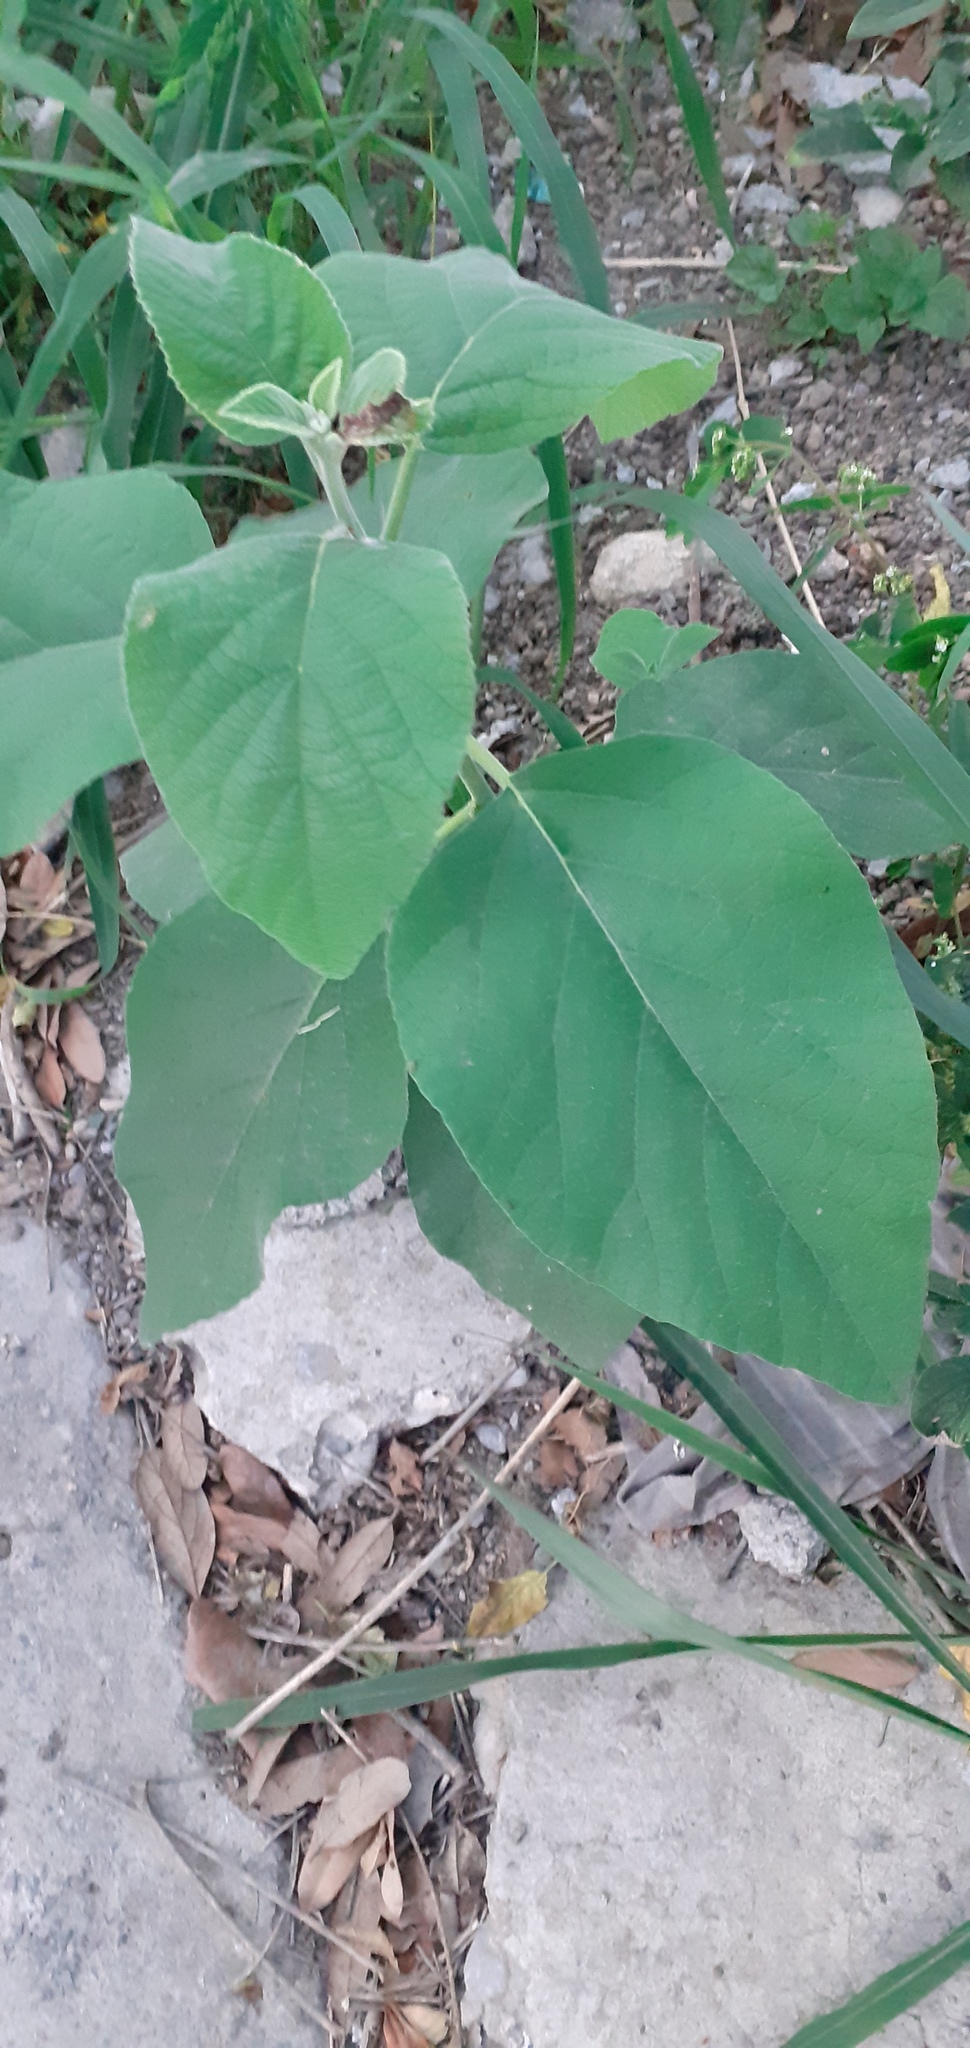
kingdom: Plantae
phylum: Tracheophyta
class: Magnoliopsida
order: Boraginales
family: Cordiaceae
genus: Cordia
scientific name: Cordia boissieri
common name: Mexican-olive
